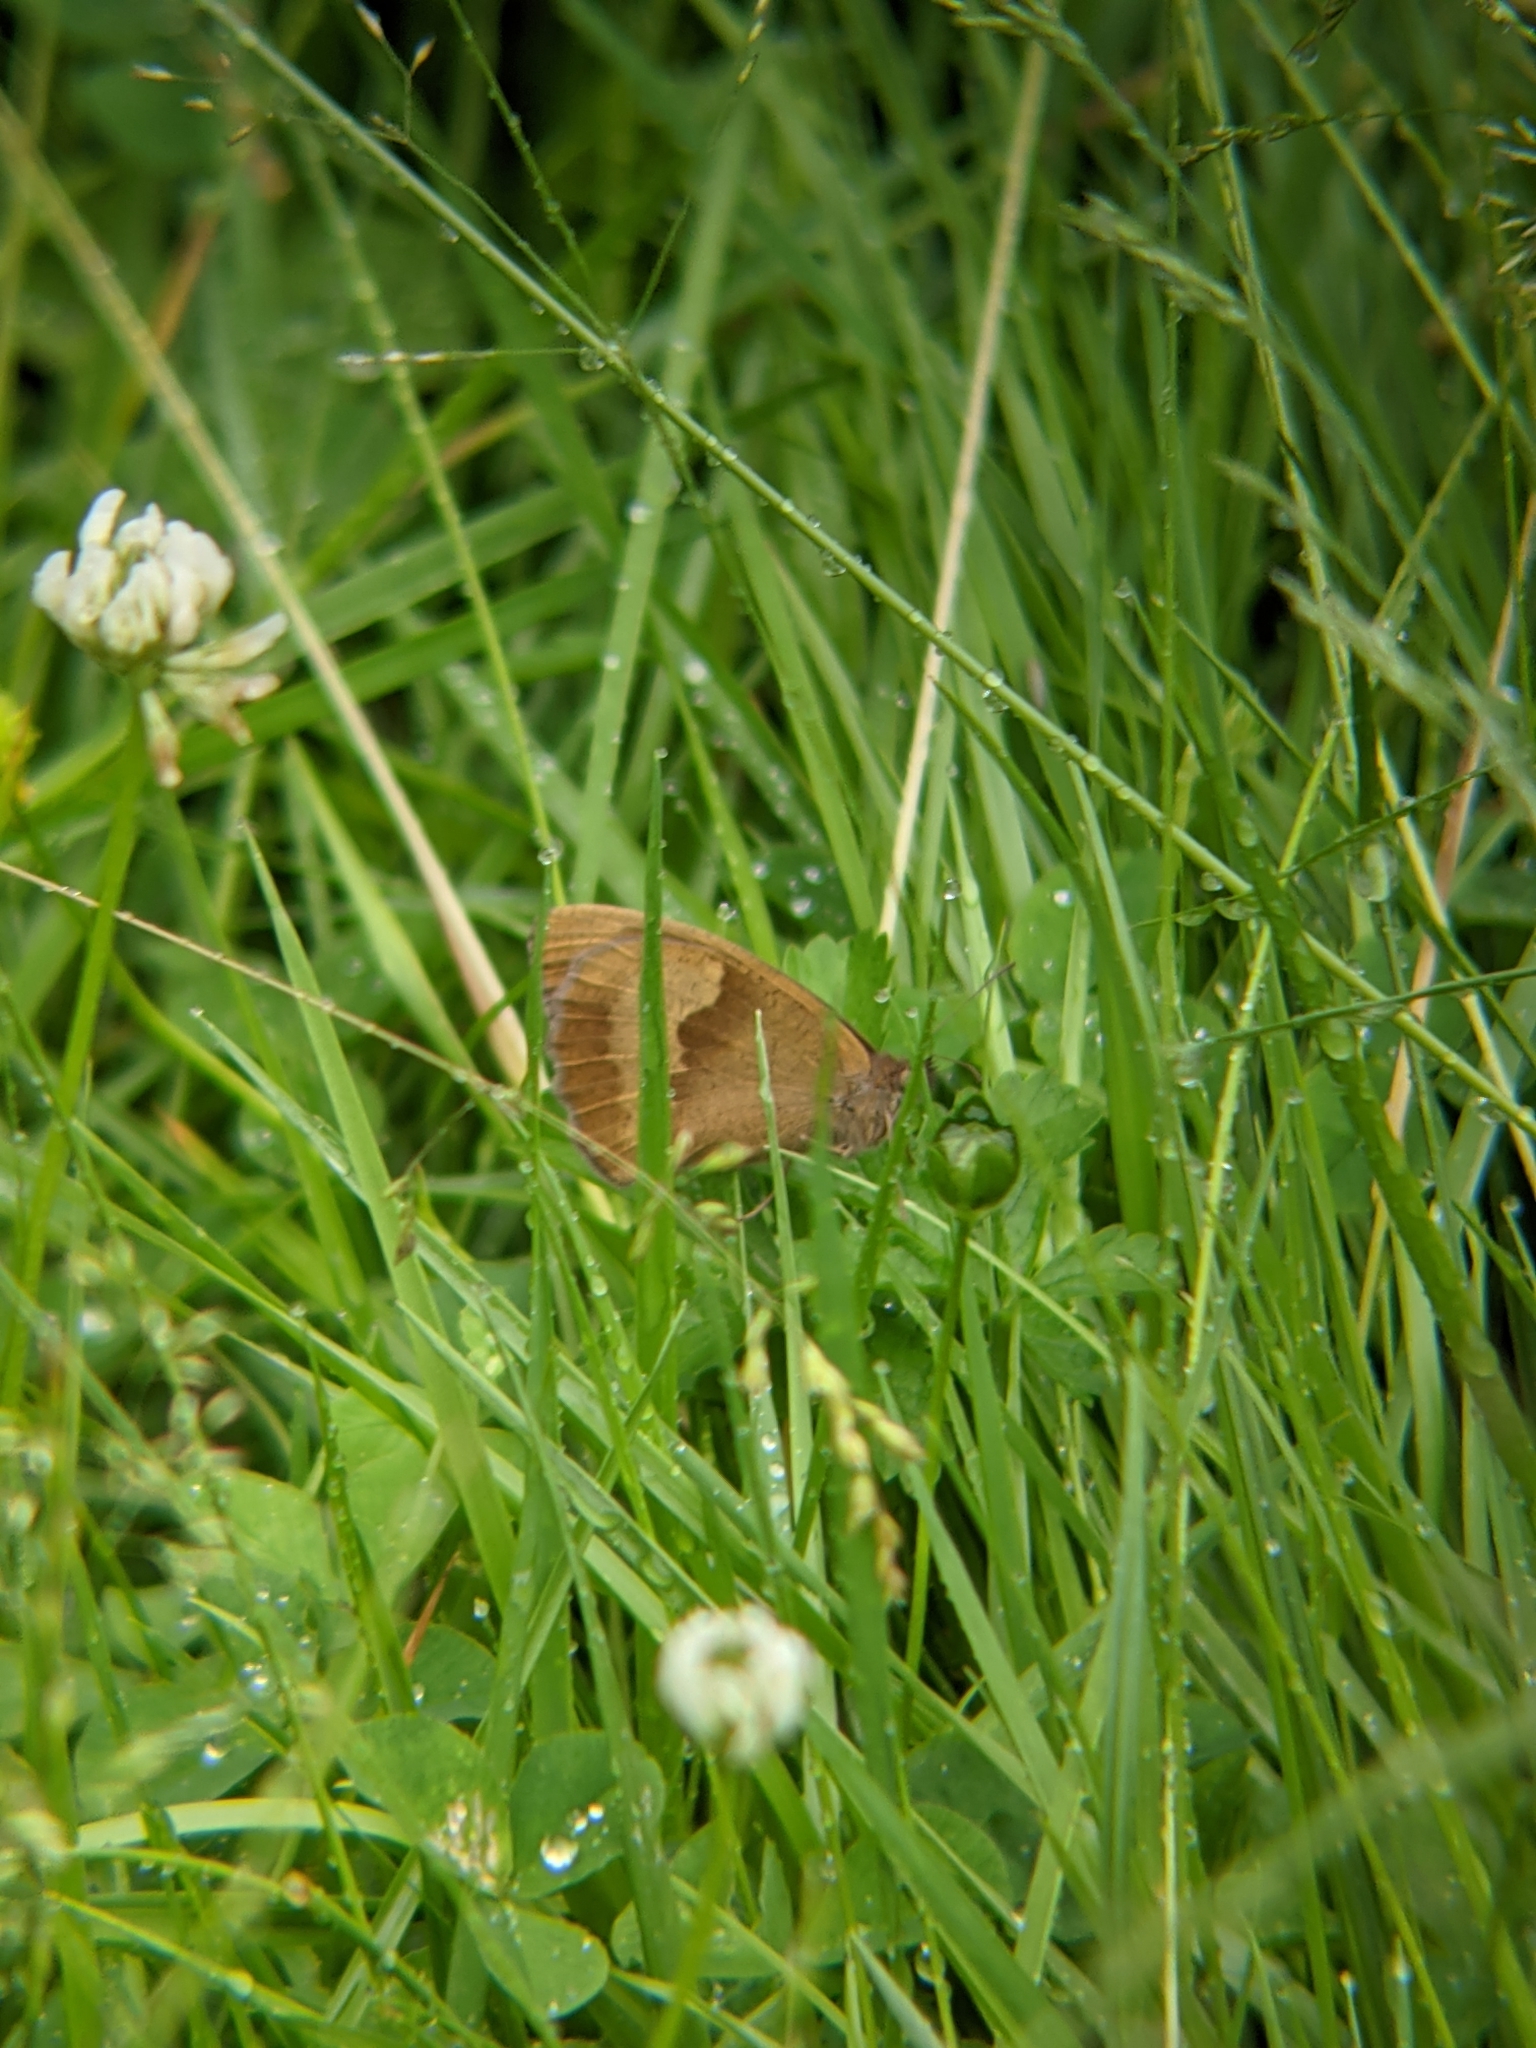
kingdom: Animalia
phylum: Arthropoda
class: Insecta
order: Lepidoptera
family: Nymphalidae
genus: Maniola
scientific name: Maniola jurtina
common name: Meadow brown
